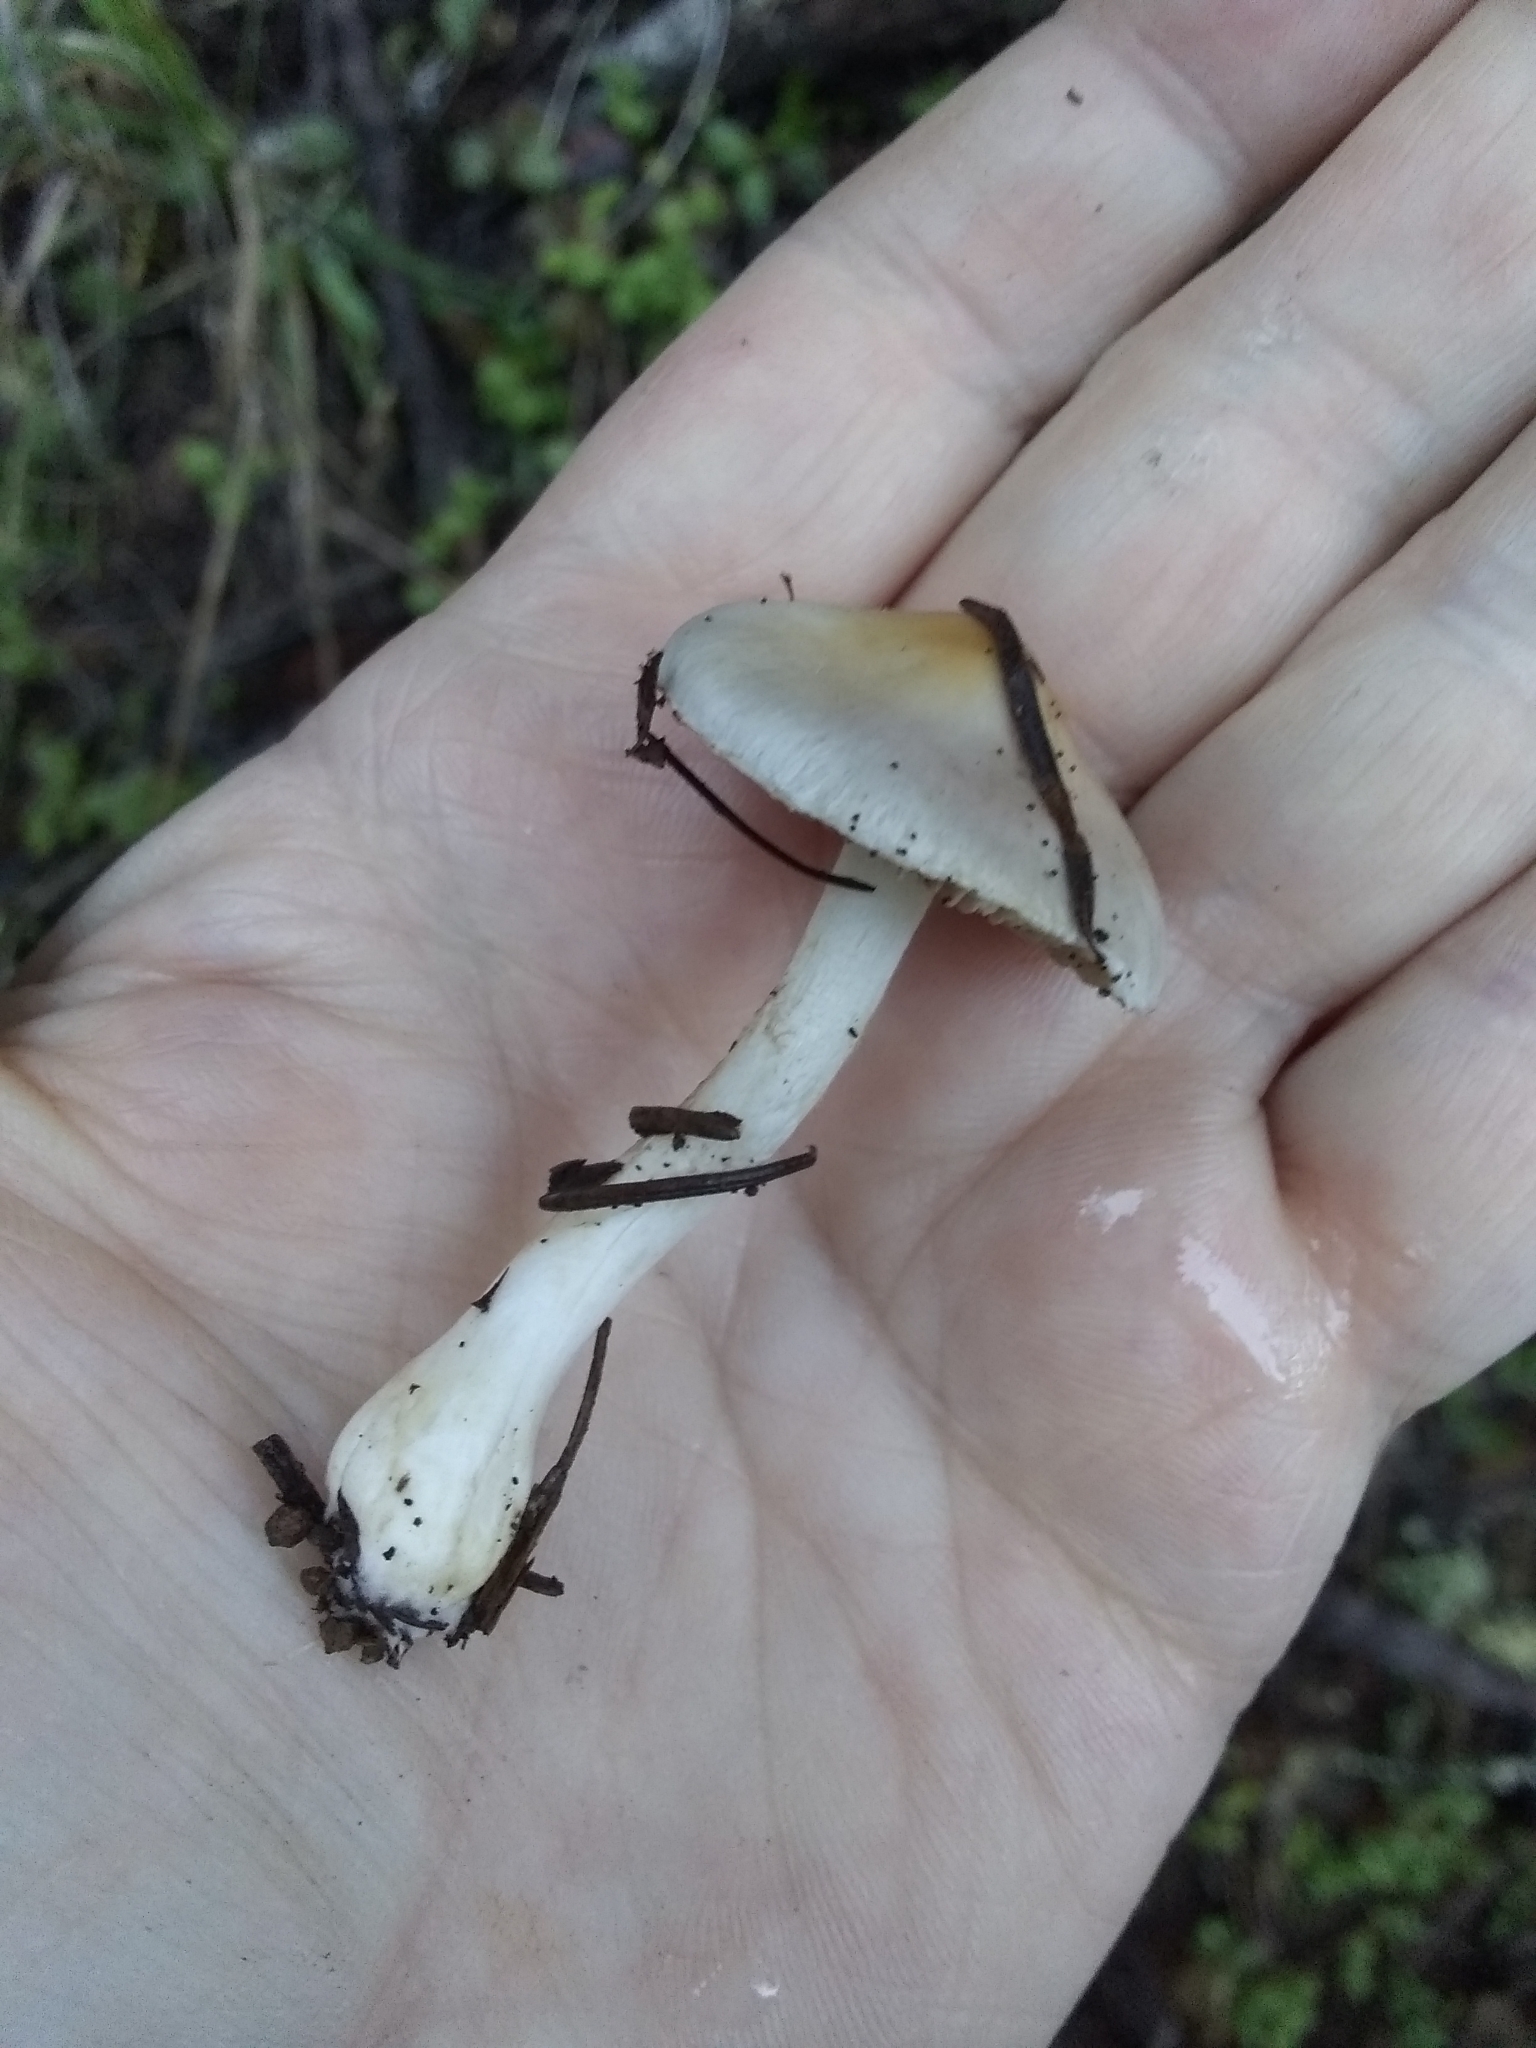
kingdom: Fungi
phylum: Basidiomycota
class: Agaricomycetes
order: Agaricales
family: Inocybaceae
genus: Inocybe
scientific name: Inocybe insinuata
